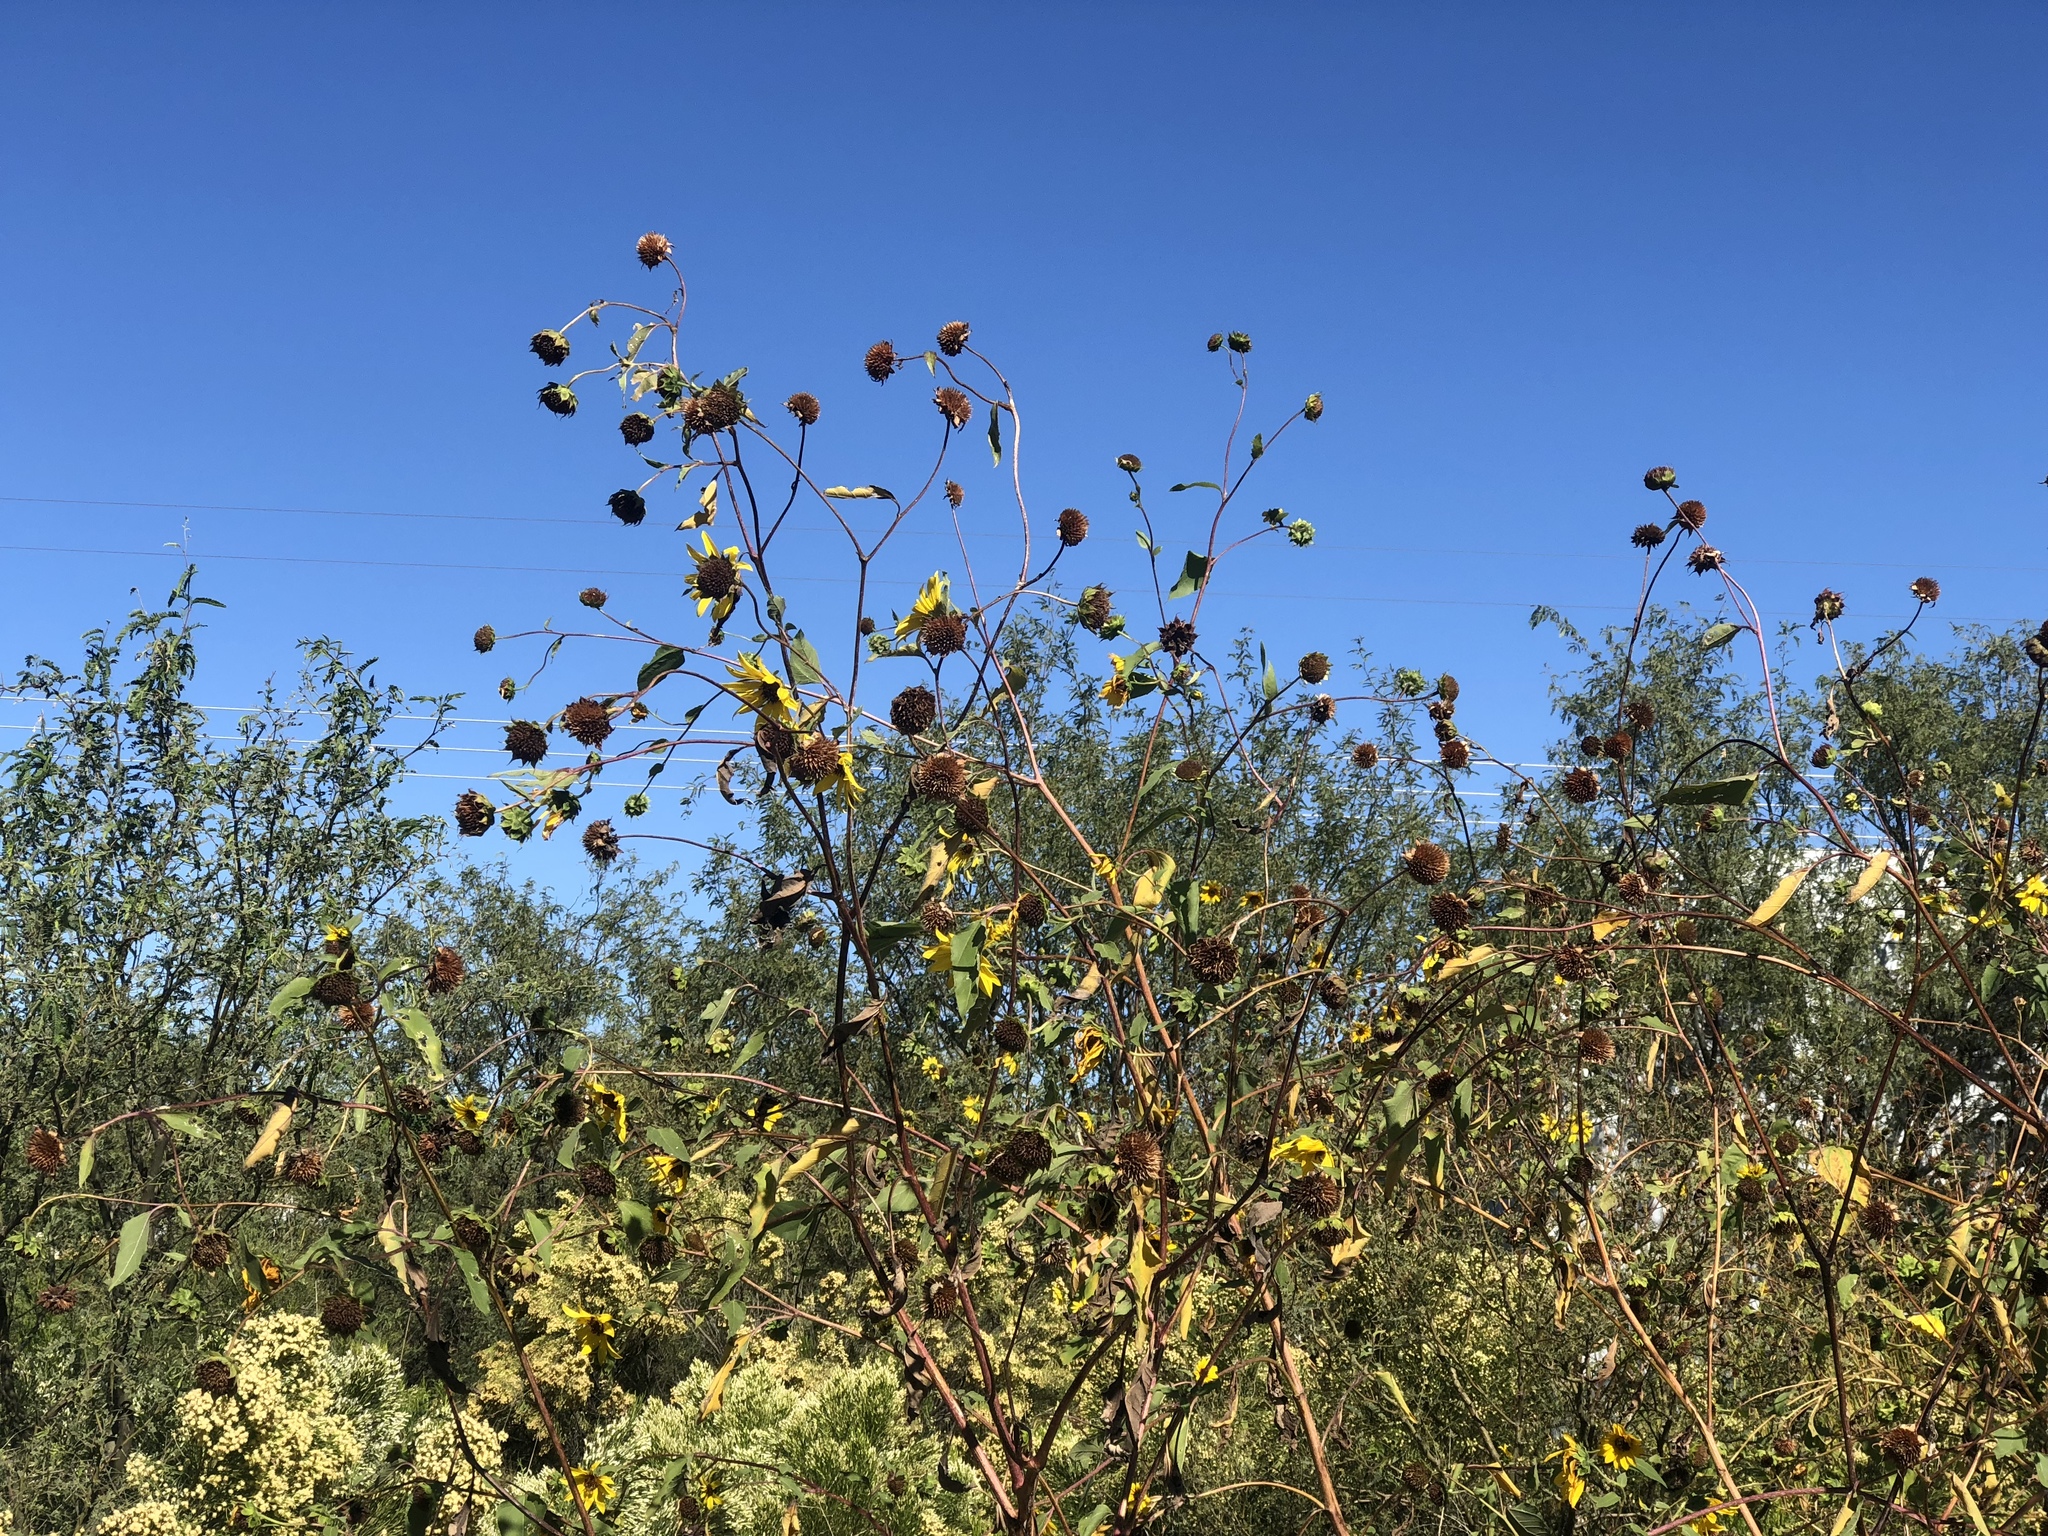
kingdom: Plantae
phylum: Tracheophyta
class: Magnoliopsida
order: Asterales
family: Asteraceae
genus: Helianthus
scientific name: Helianthus annuus
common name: Sunflower
